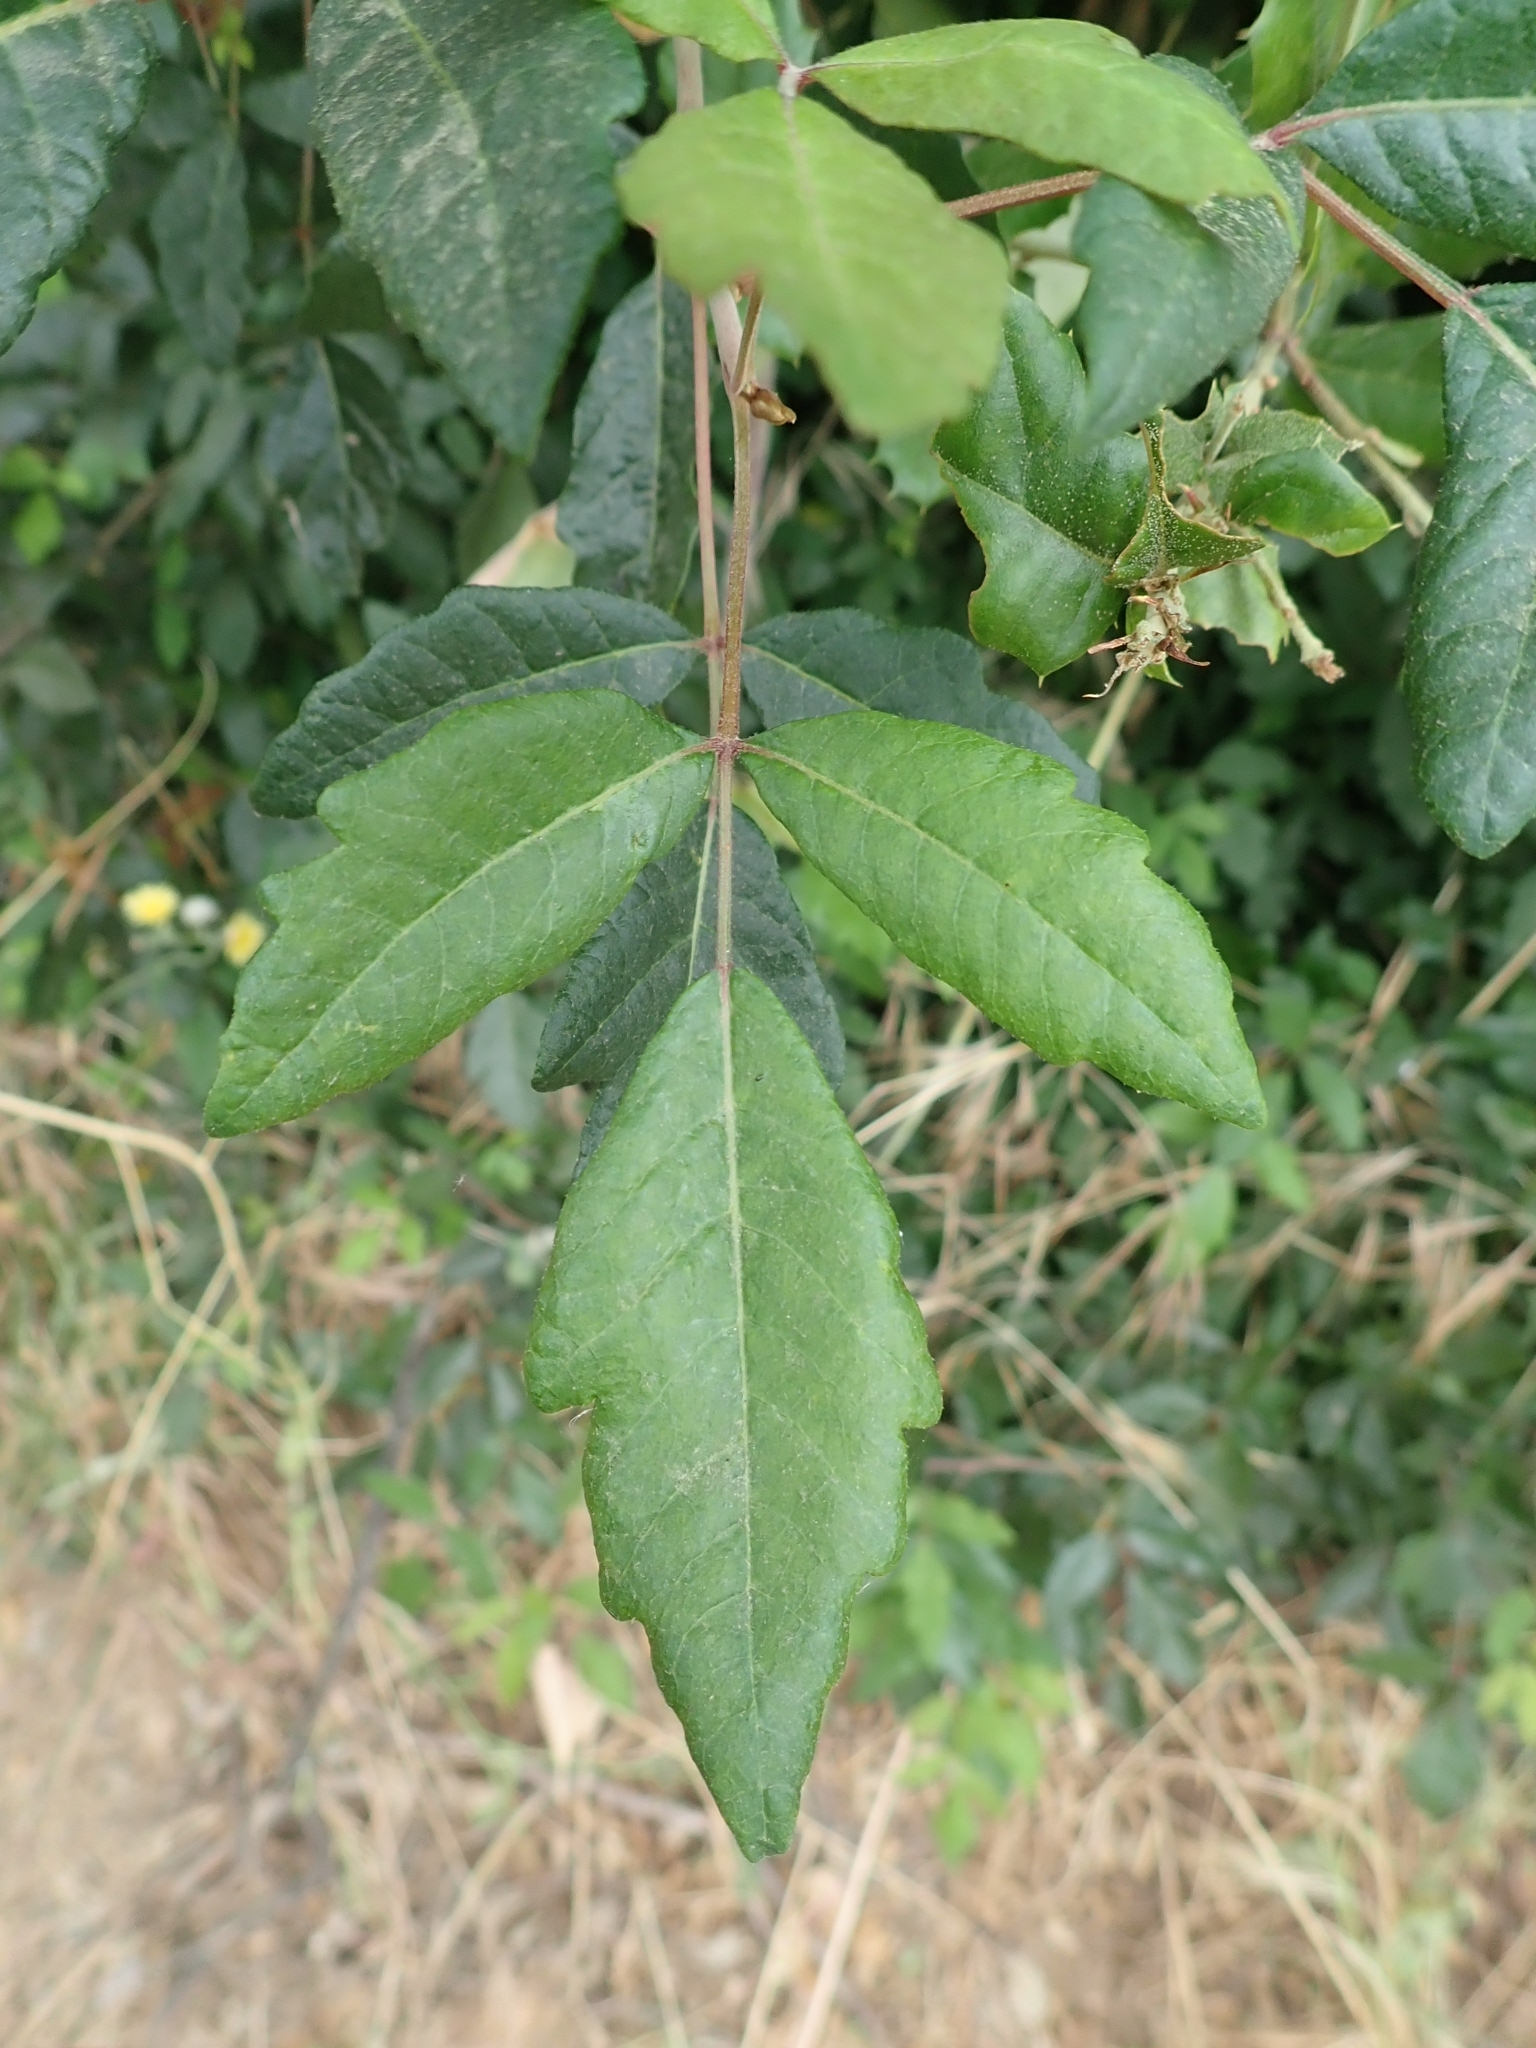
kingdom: Plantae
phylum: Tracheophyta
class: Magnoliopsida
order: Sapindales
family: Anacardiaceae
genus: Toxicodendron
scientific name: Toxicodendron diversilobum
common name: Pacific poison-oak
